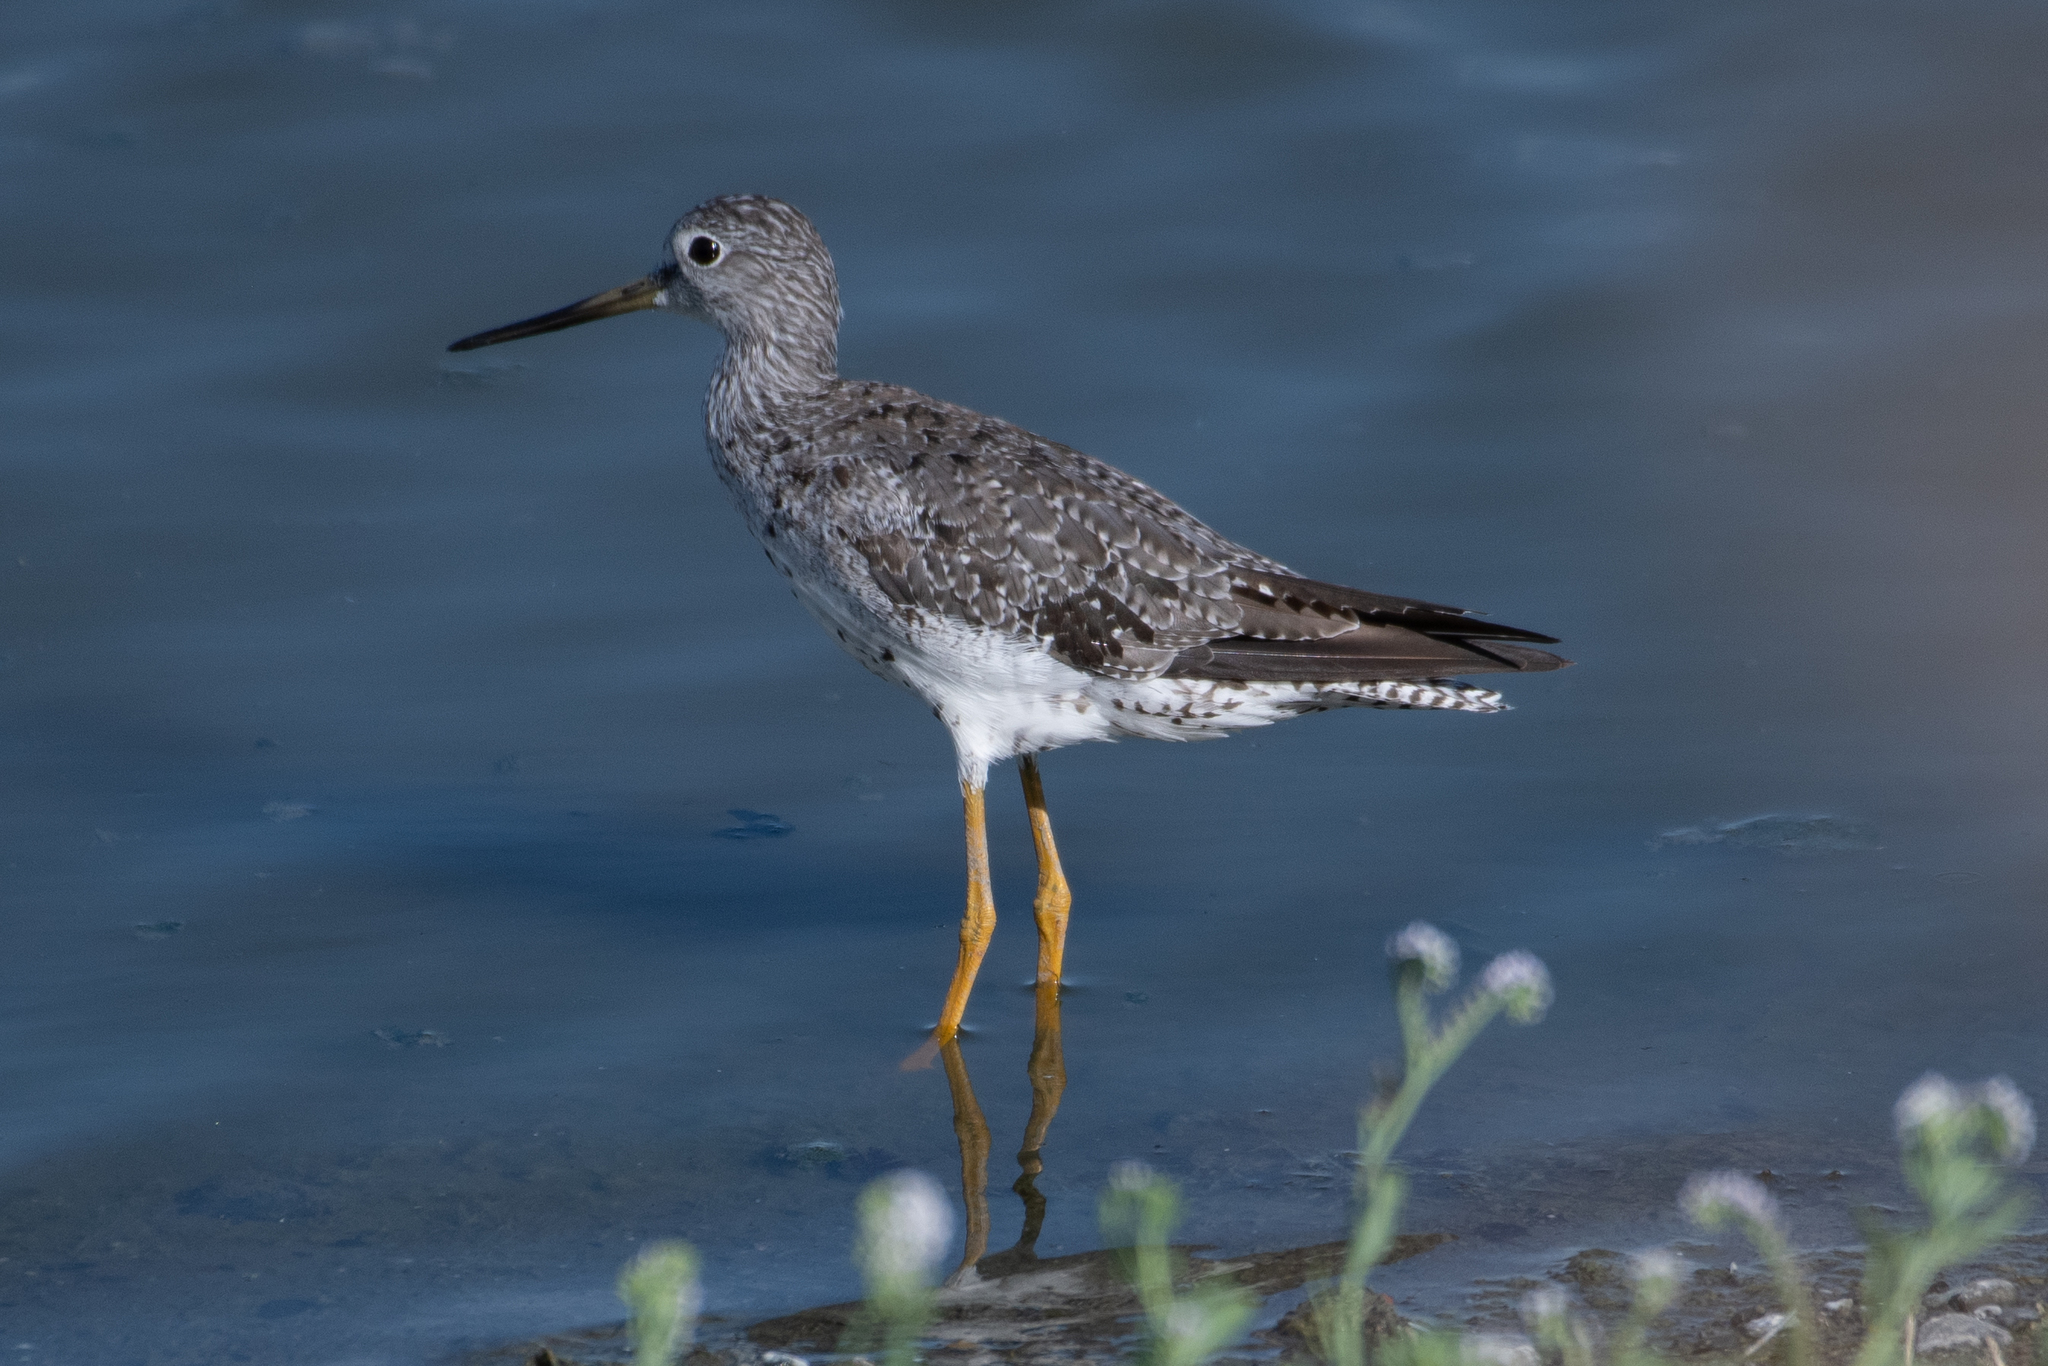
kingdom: Animalia
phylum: Chordata
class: Aves
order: Charadriiformes
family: Scolopacidae
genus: Tringa
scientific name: Tringa melanoleuca
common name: Greater yellowlegs
